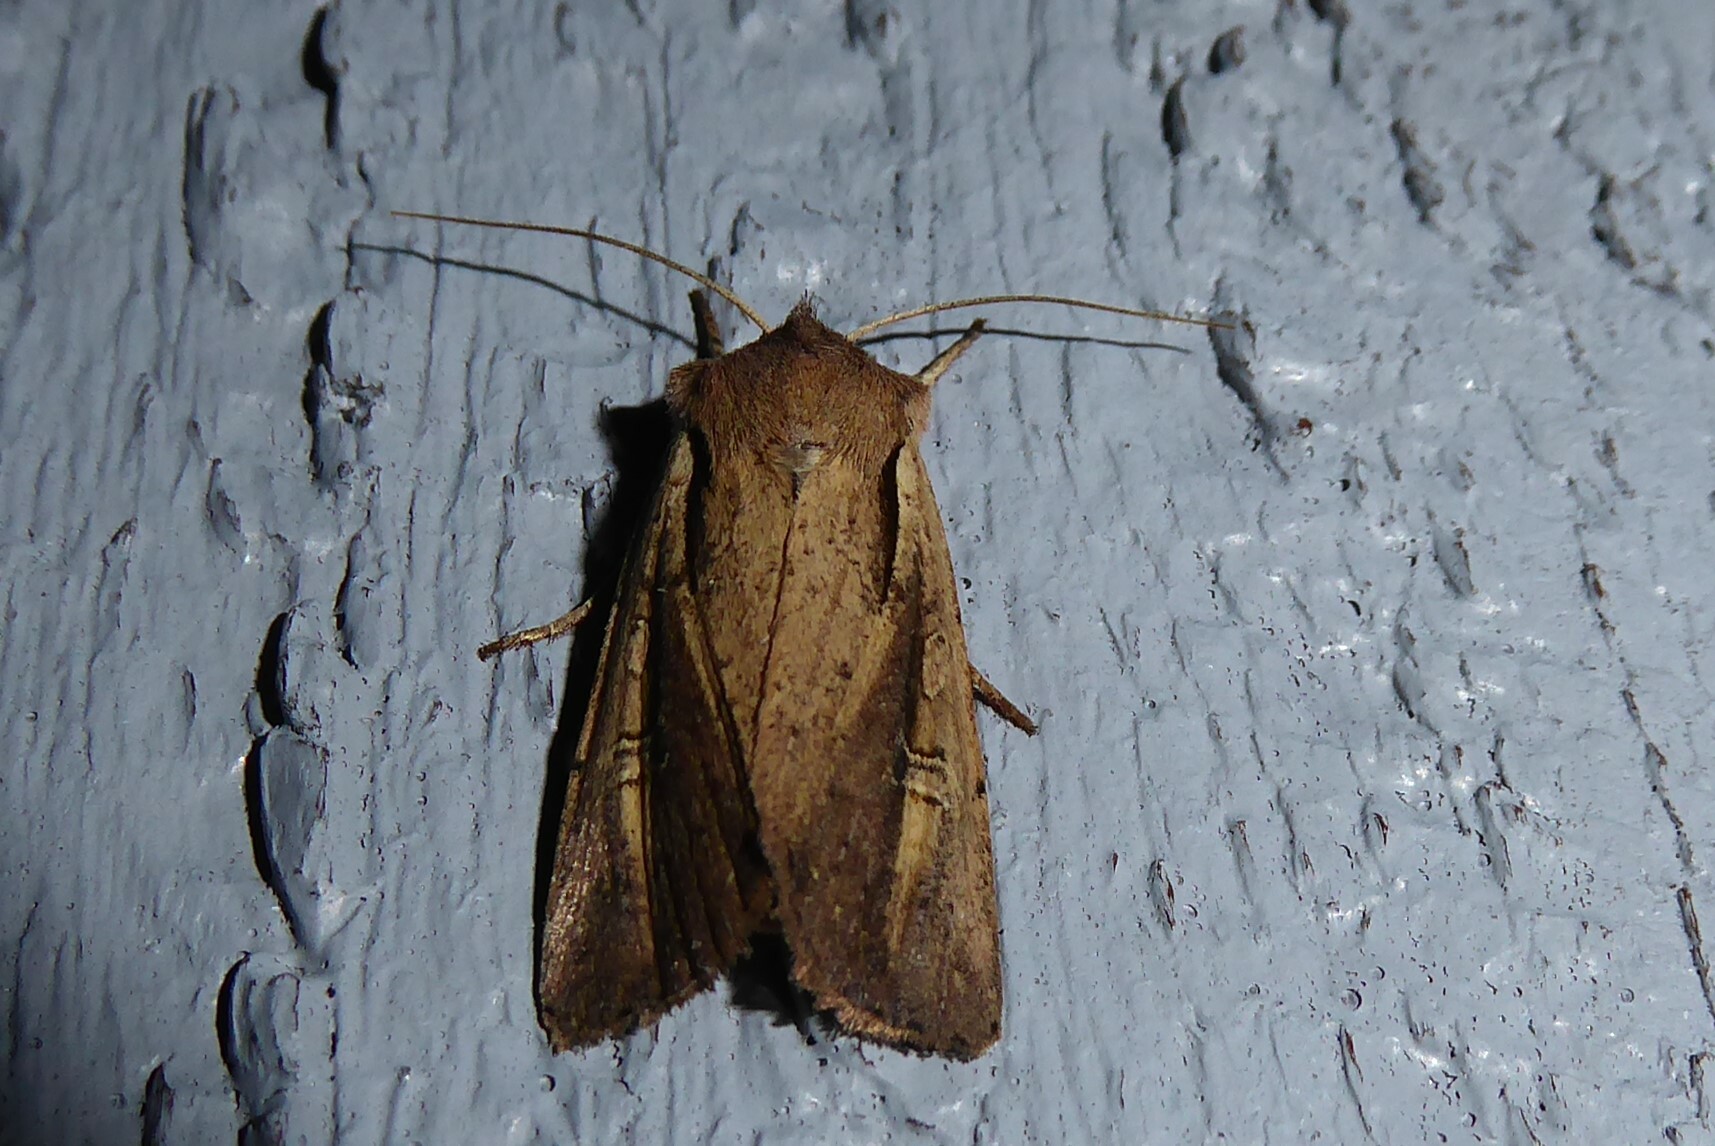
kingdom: Animalia
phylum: Arthropoda
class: Insecta
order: Lepidoptera
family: Noctuidae
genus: Ichneutica
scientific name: Ichneutica atristriga
